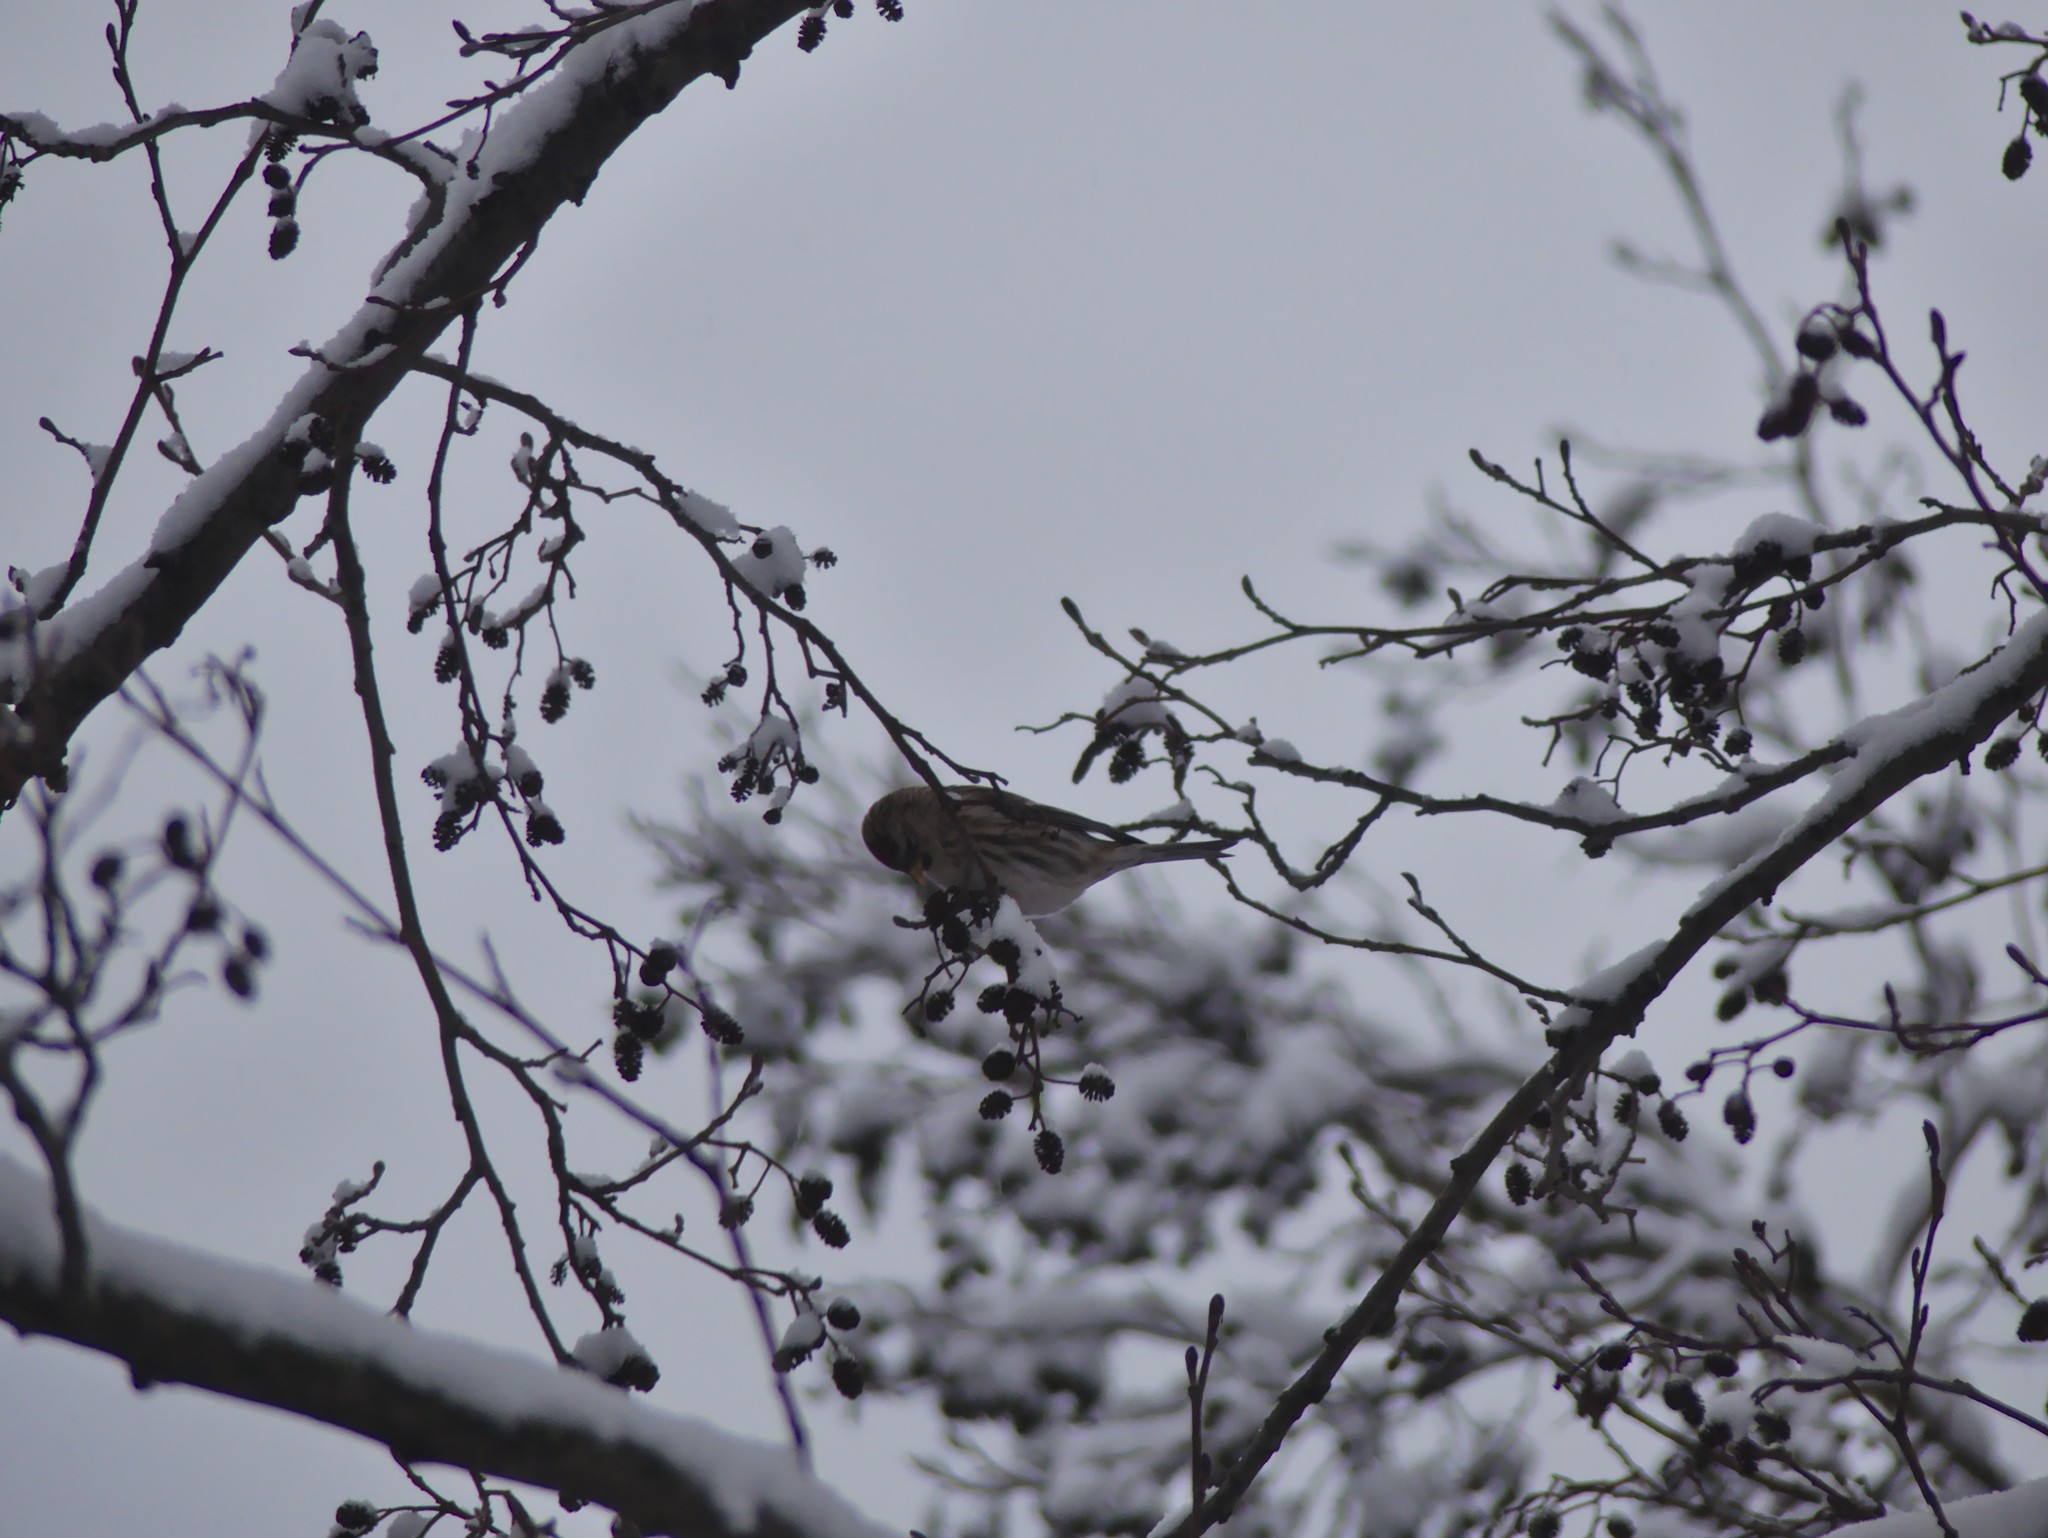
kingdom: Animalia
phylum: Chordata
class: Aves
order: Passeriformes
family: Fringillidae
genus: Acanthis
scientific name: Acanthis flammea
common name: Common redpoll
